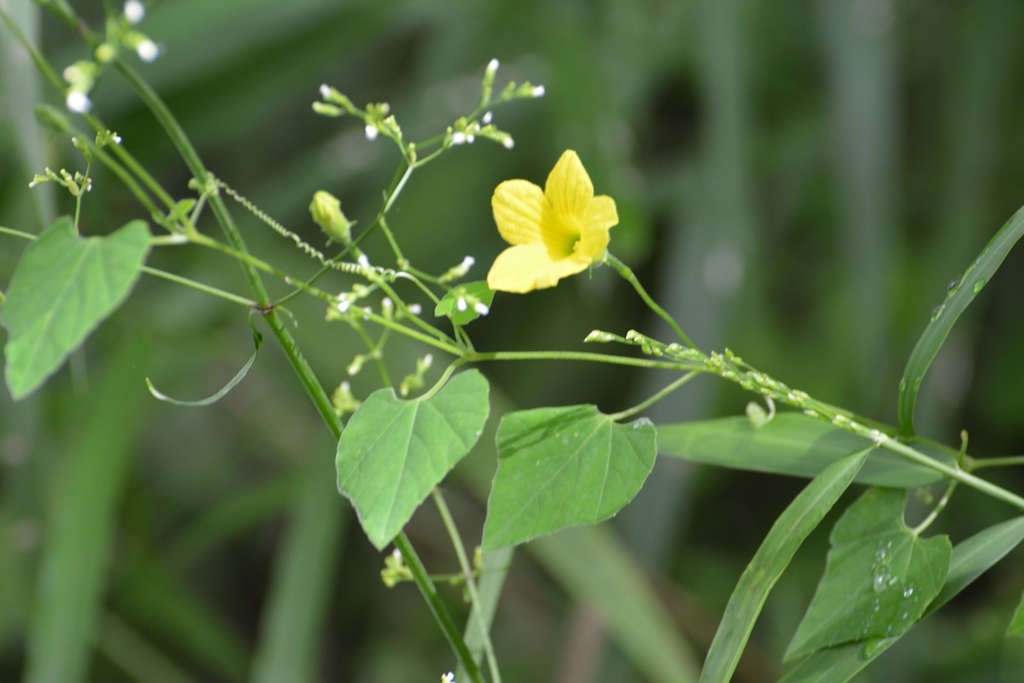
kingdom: Plantae
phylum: Tracheophyta
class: Magnoliopsida
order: Cucurbitales
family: Cucurbitaceae
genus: Schizocarpum
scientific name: Schizocarpum longisepalum
